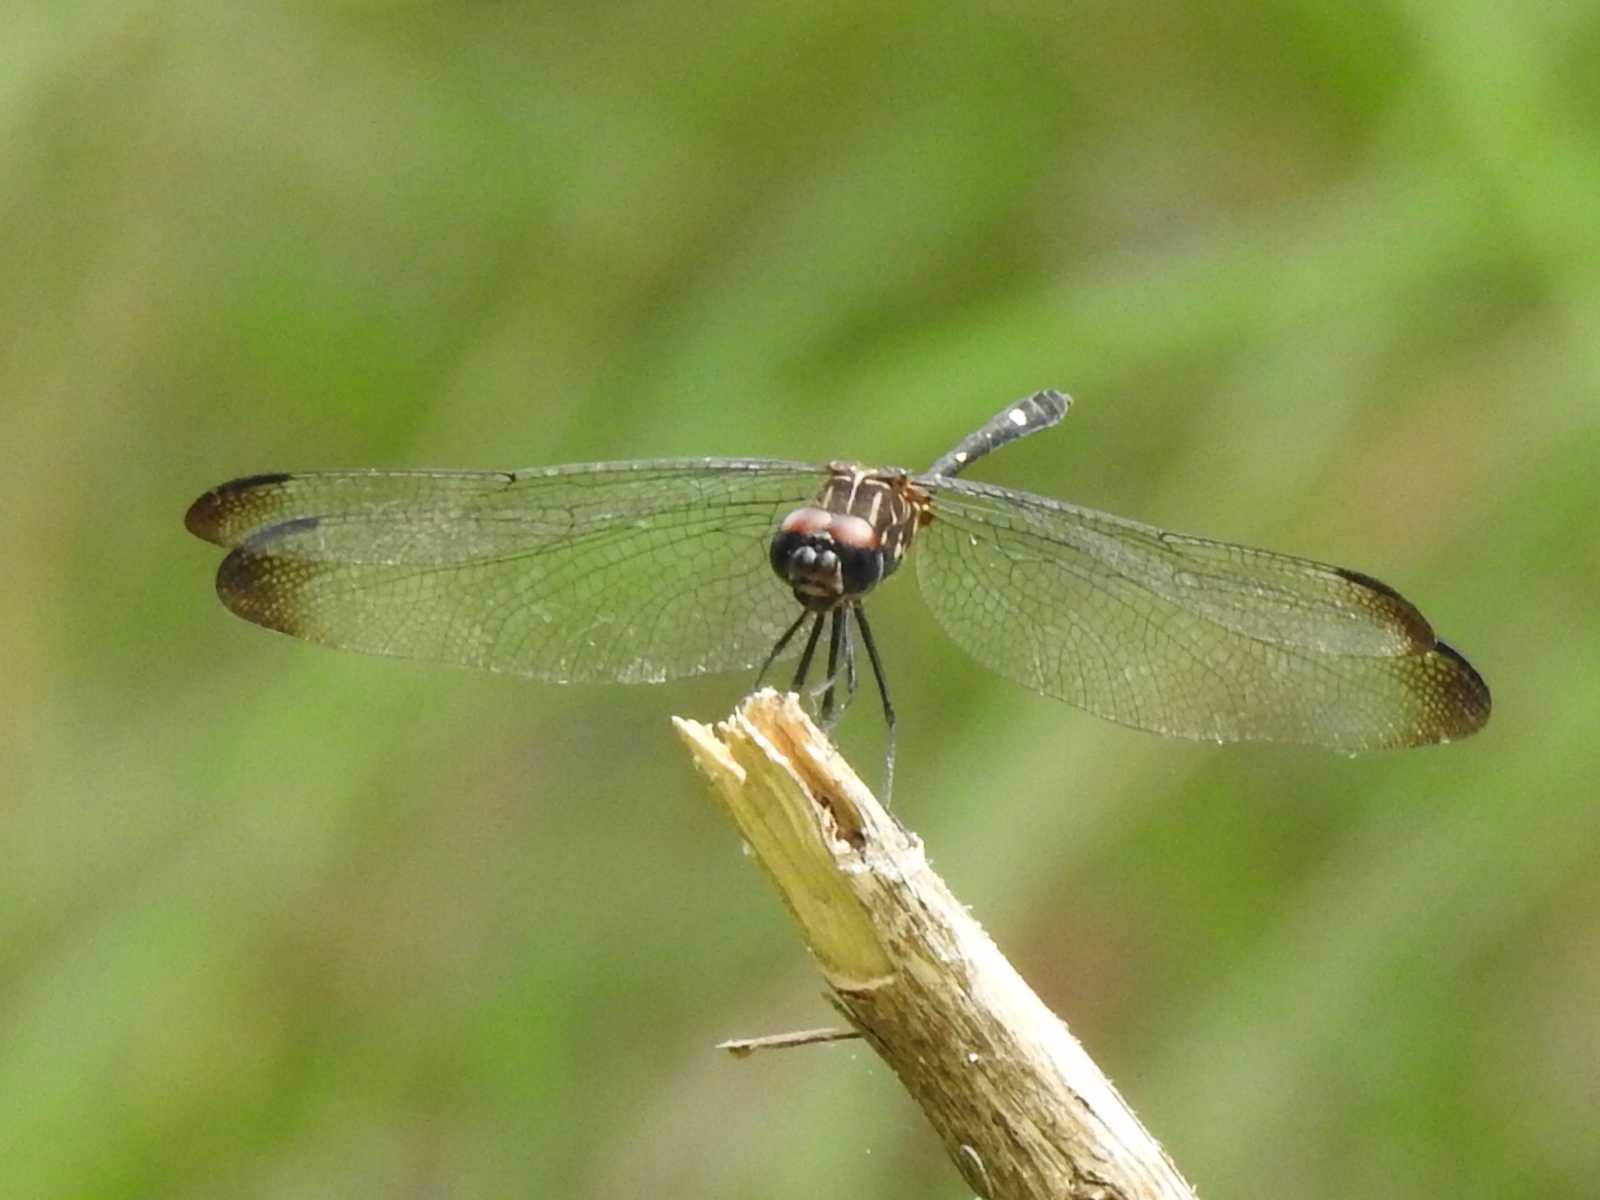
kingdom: Animalia
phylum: Arthropoda
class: Insecta
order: Odonata
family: Libellulidae
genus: Dythemis
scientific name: Dythemis velox
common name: Swift setwing
